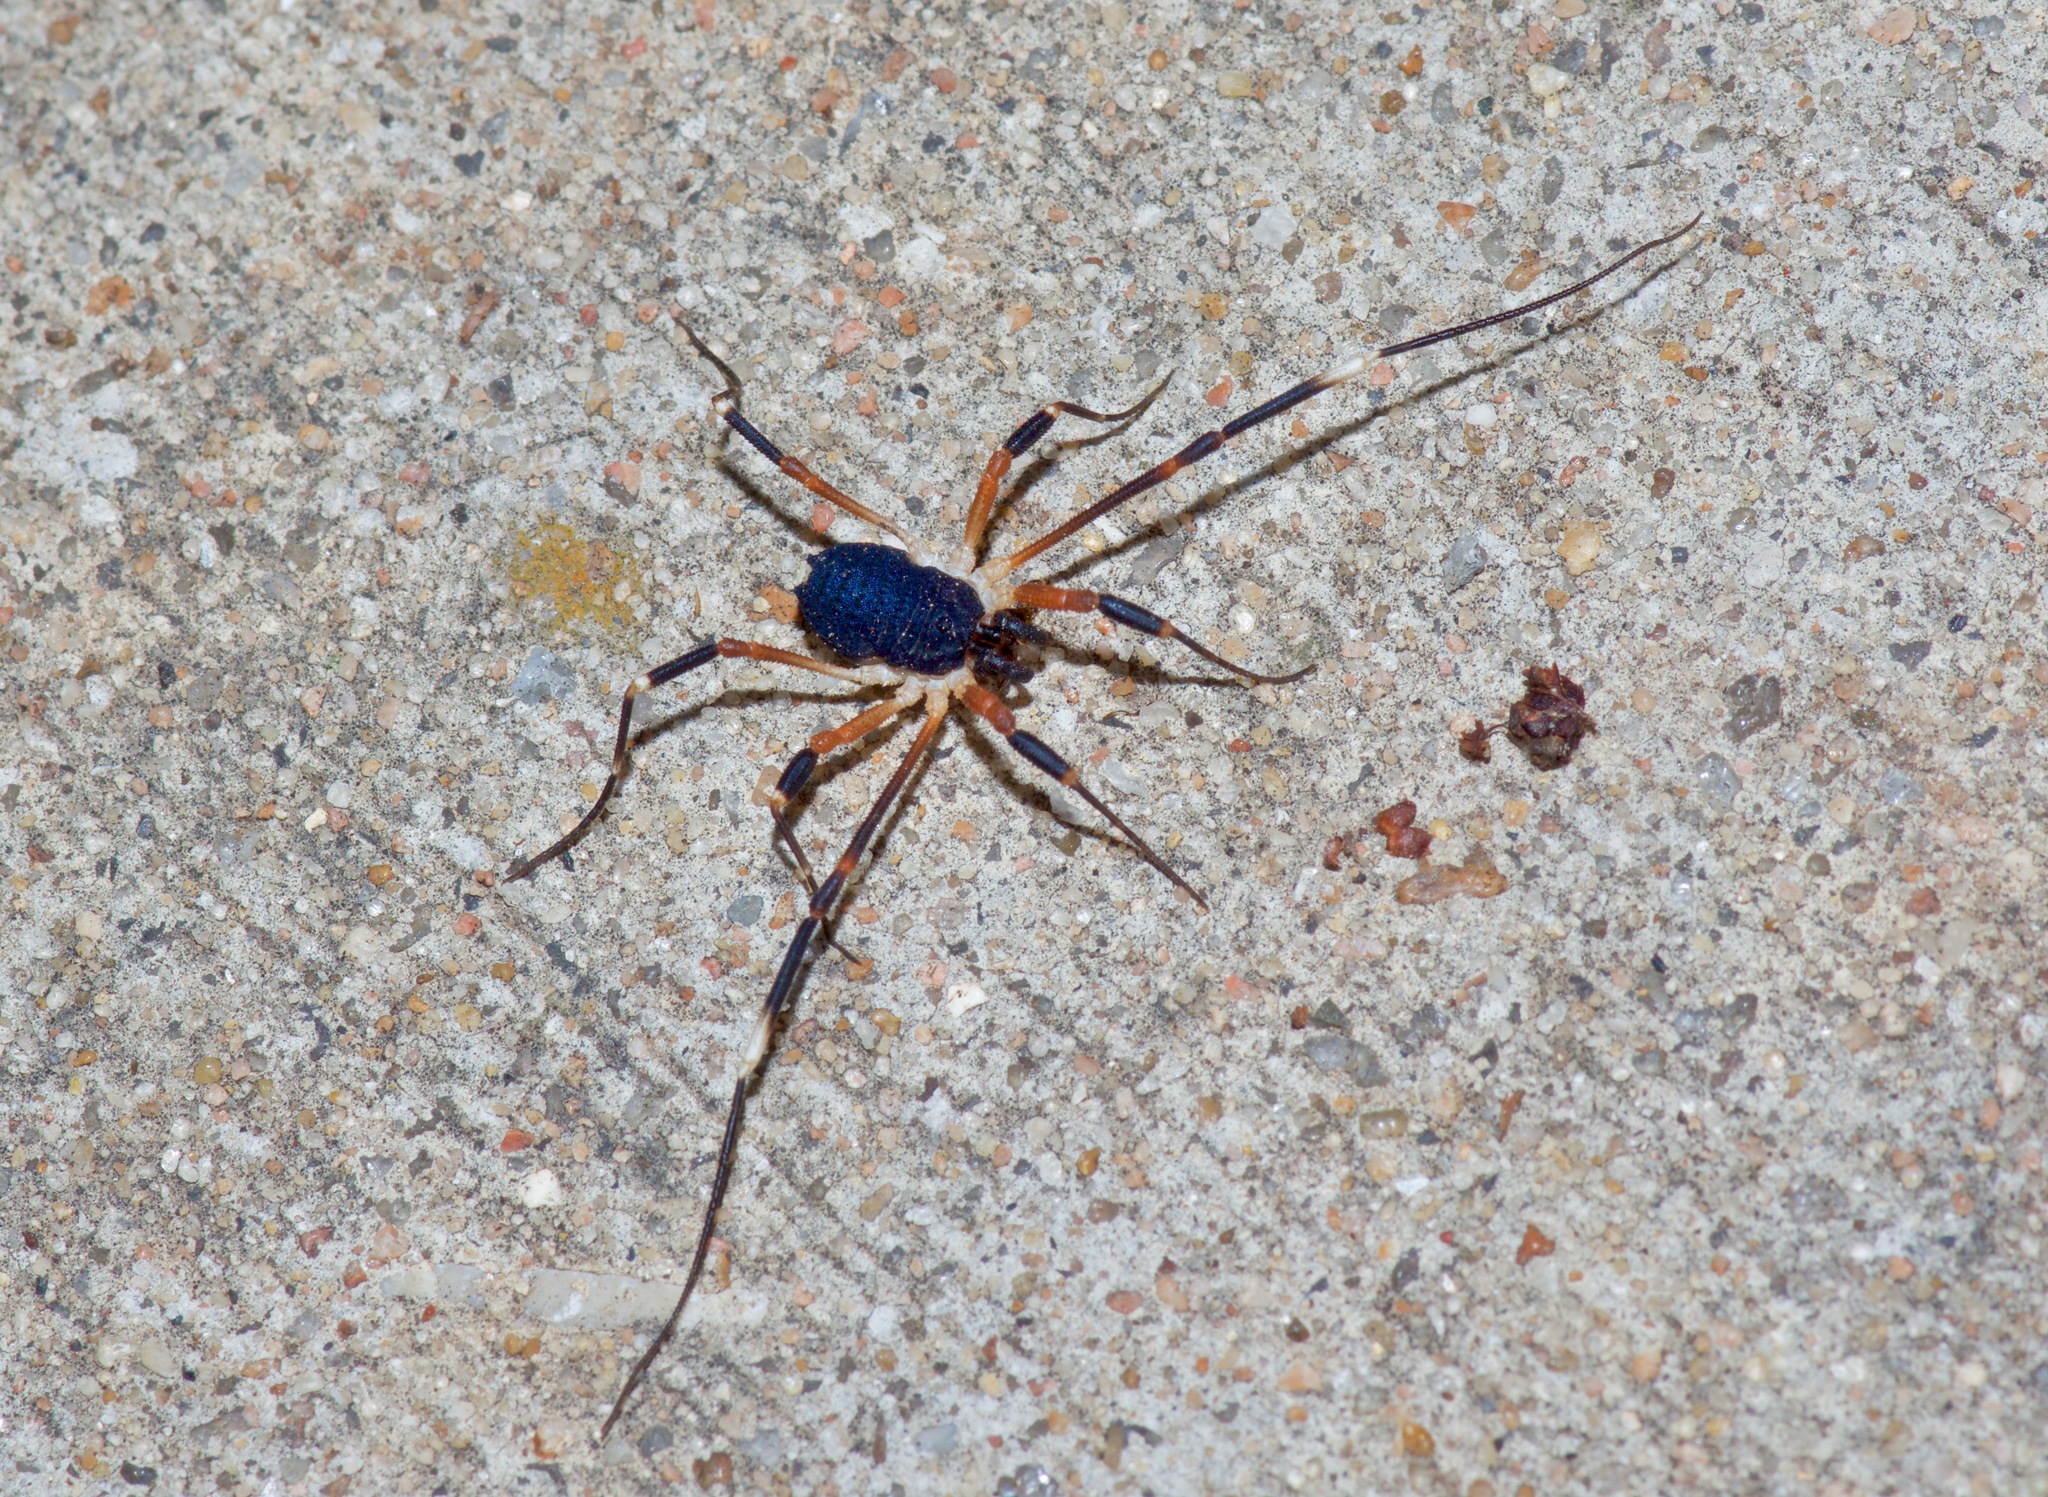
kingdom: Animalia
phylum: Arthropoda
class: Arachnida
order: Opiliones
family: Globipedidae
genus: Dalquestia
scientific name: Dalquestia formosa
